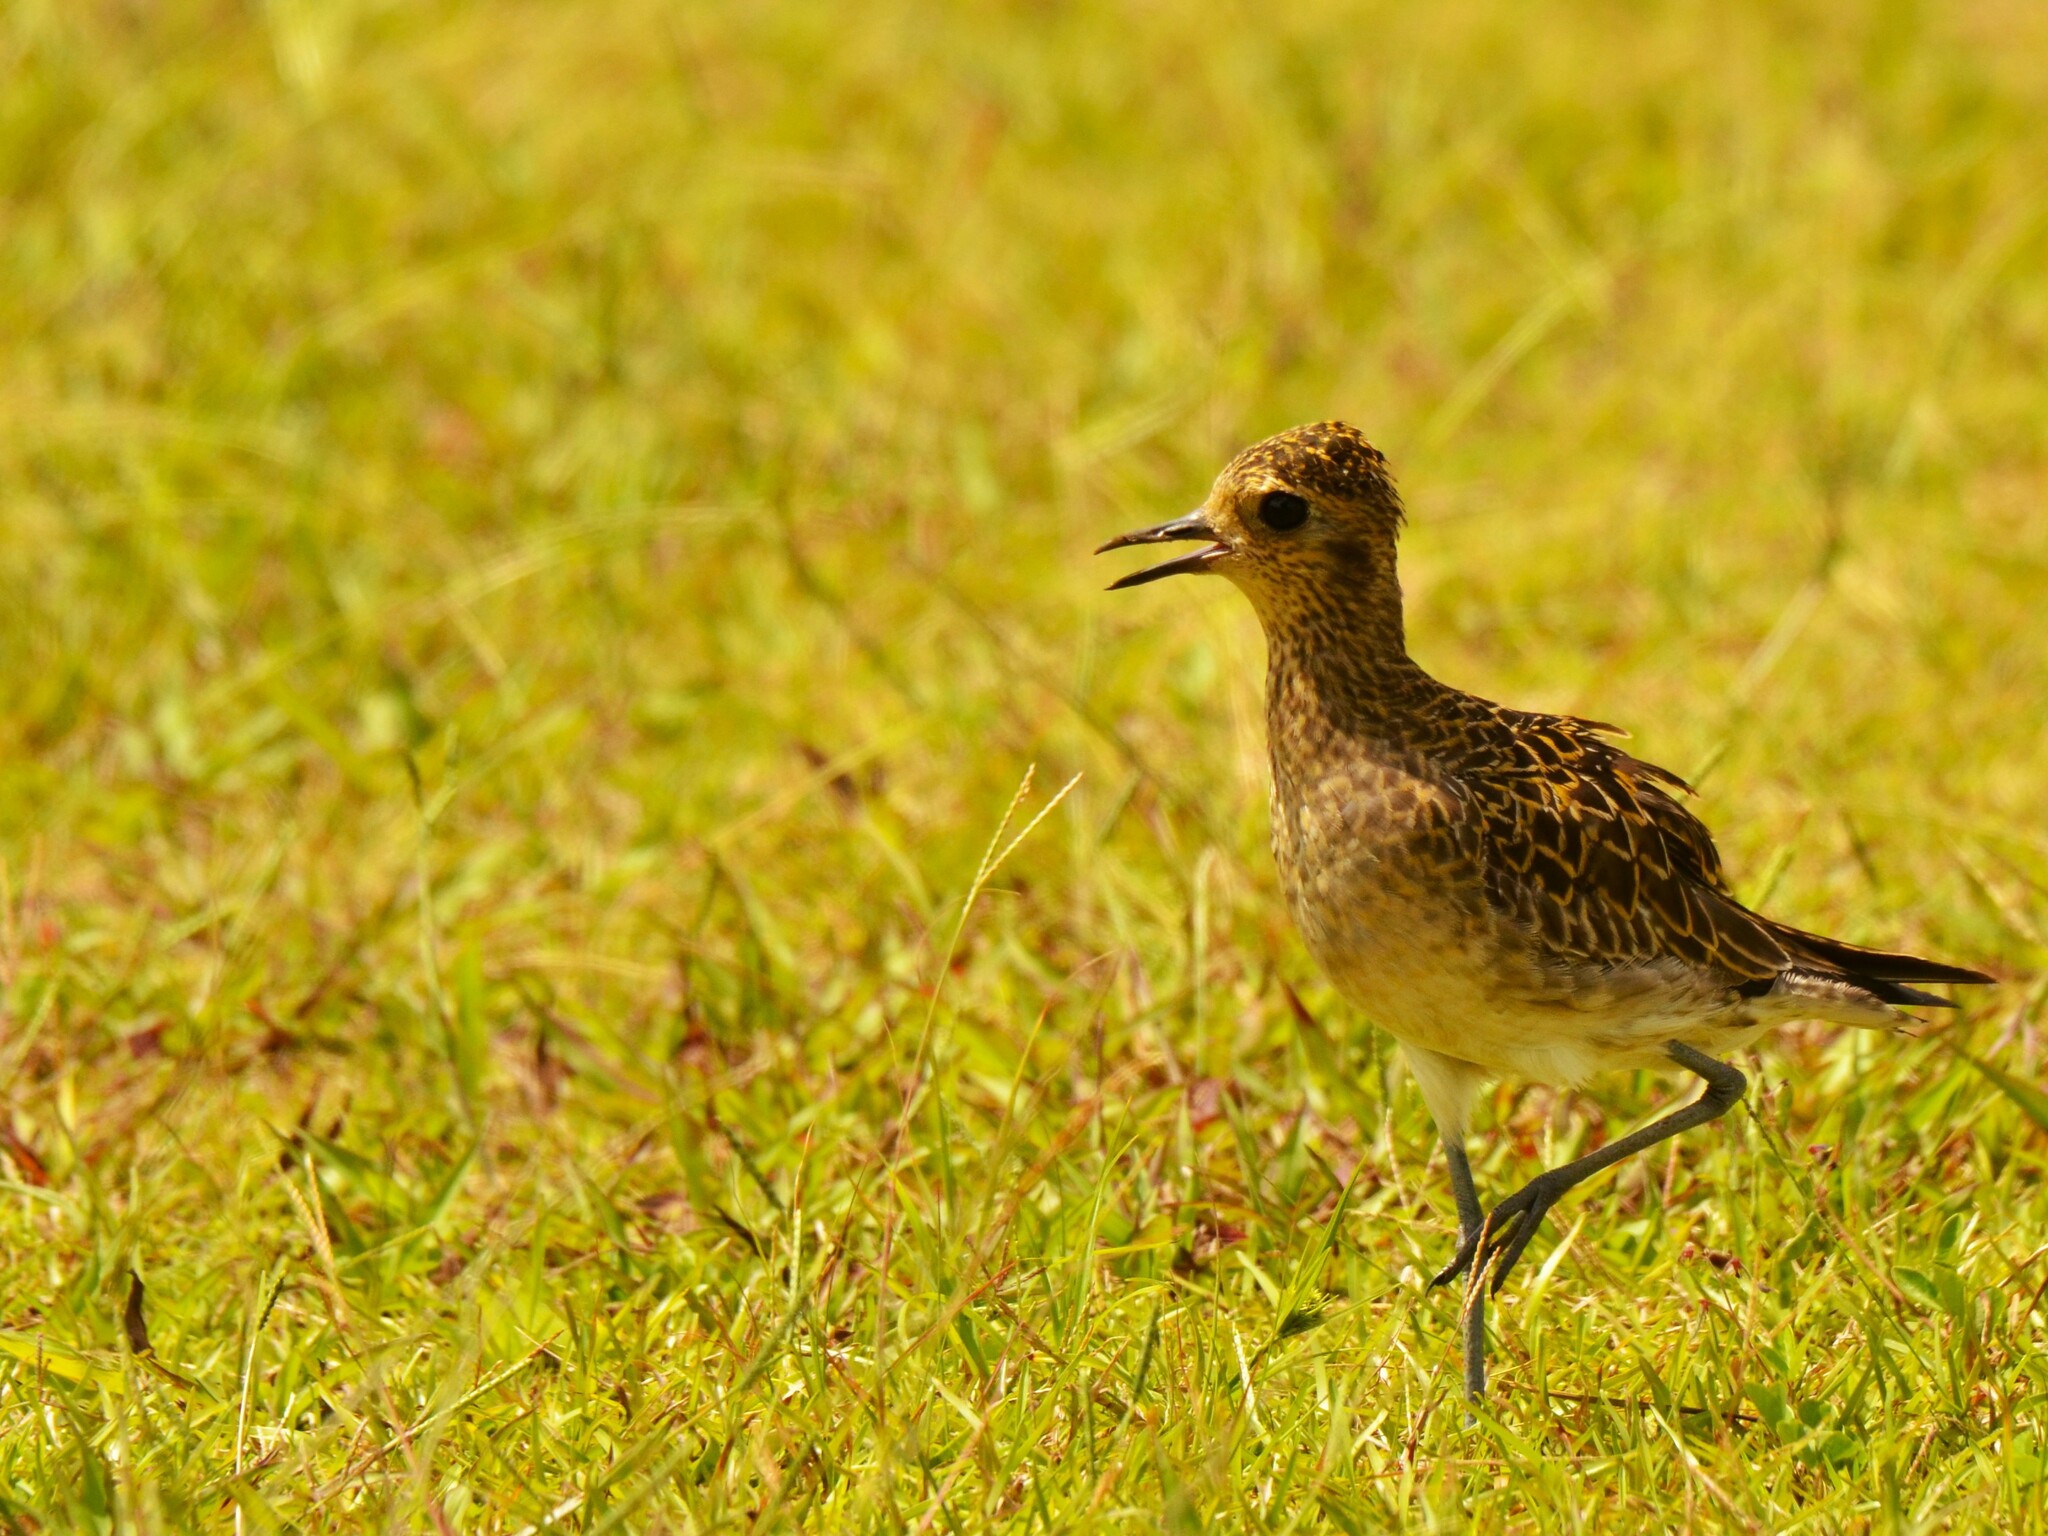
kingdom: Animalia
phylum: Chordata
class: Aves
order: Charadriiformes
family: Charadriidae
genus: Pluvialis
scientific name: Pluvialis fulva
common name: Pacific golden plover
